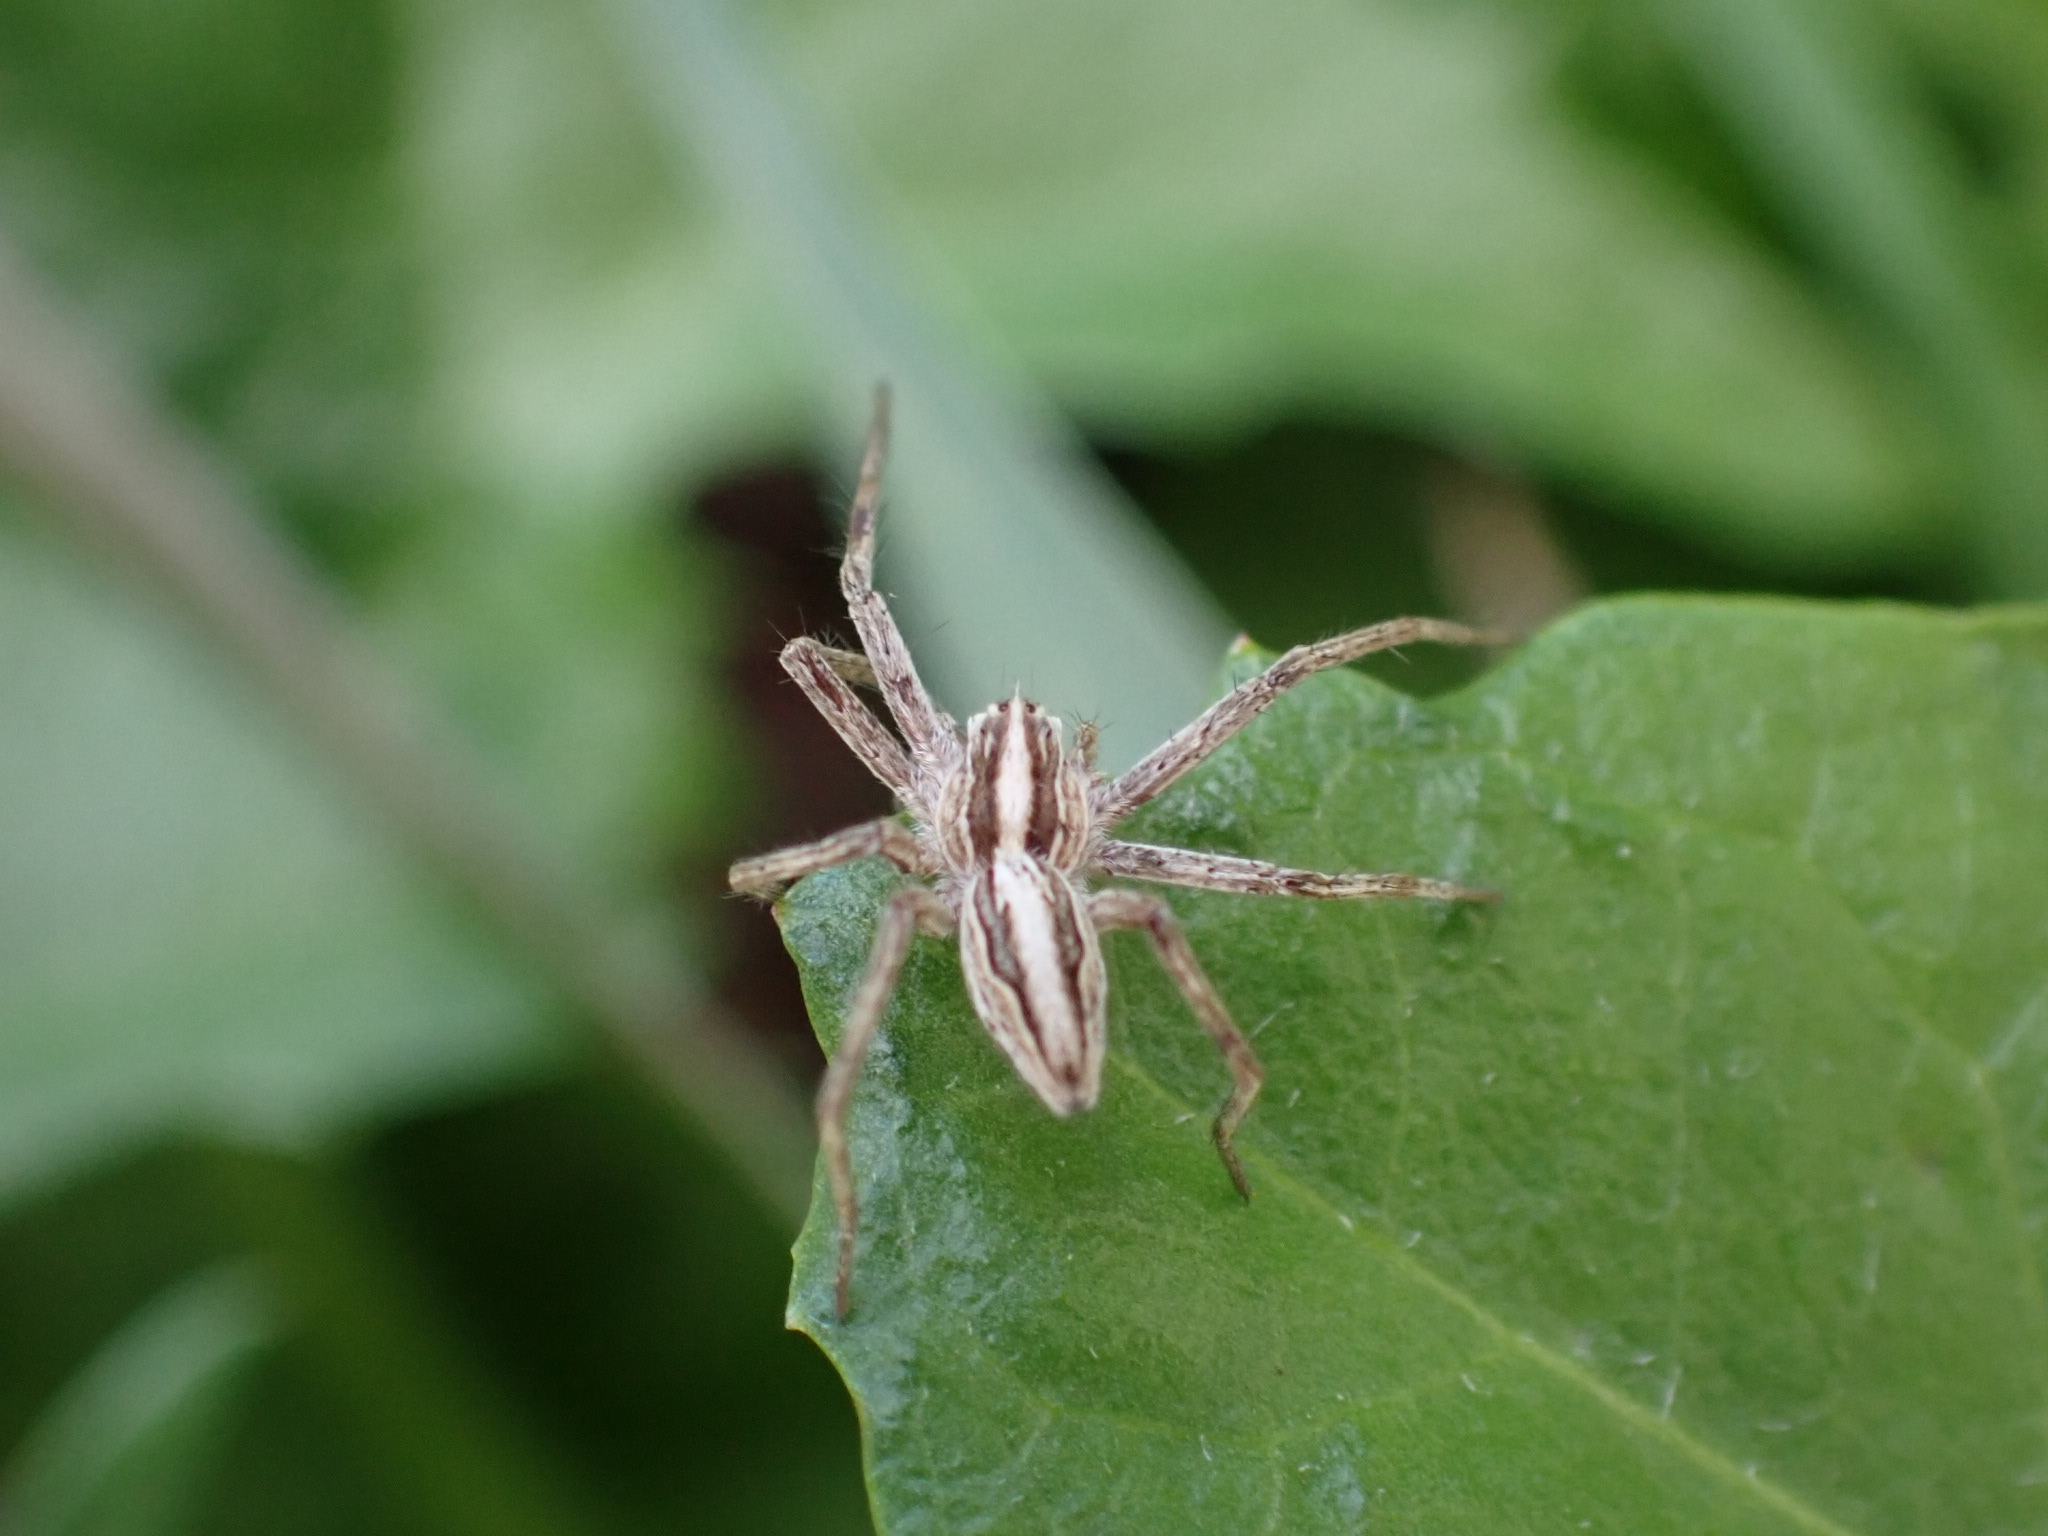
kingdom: Animalia
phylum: Arthropoda
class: Arachnida
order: Araneae
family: Pisauridae
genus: Pisaura
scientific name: Pisaura mirabilis
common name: Tent spider
